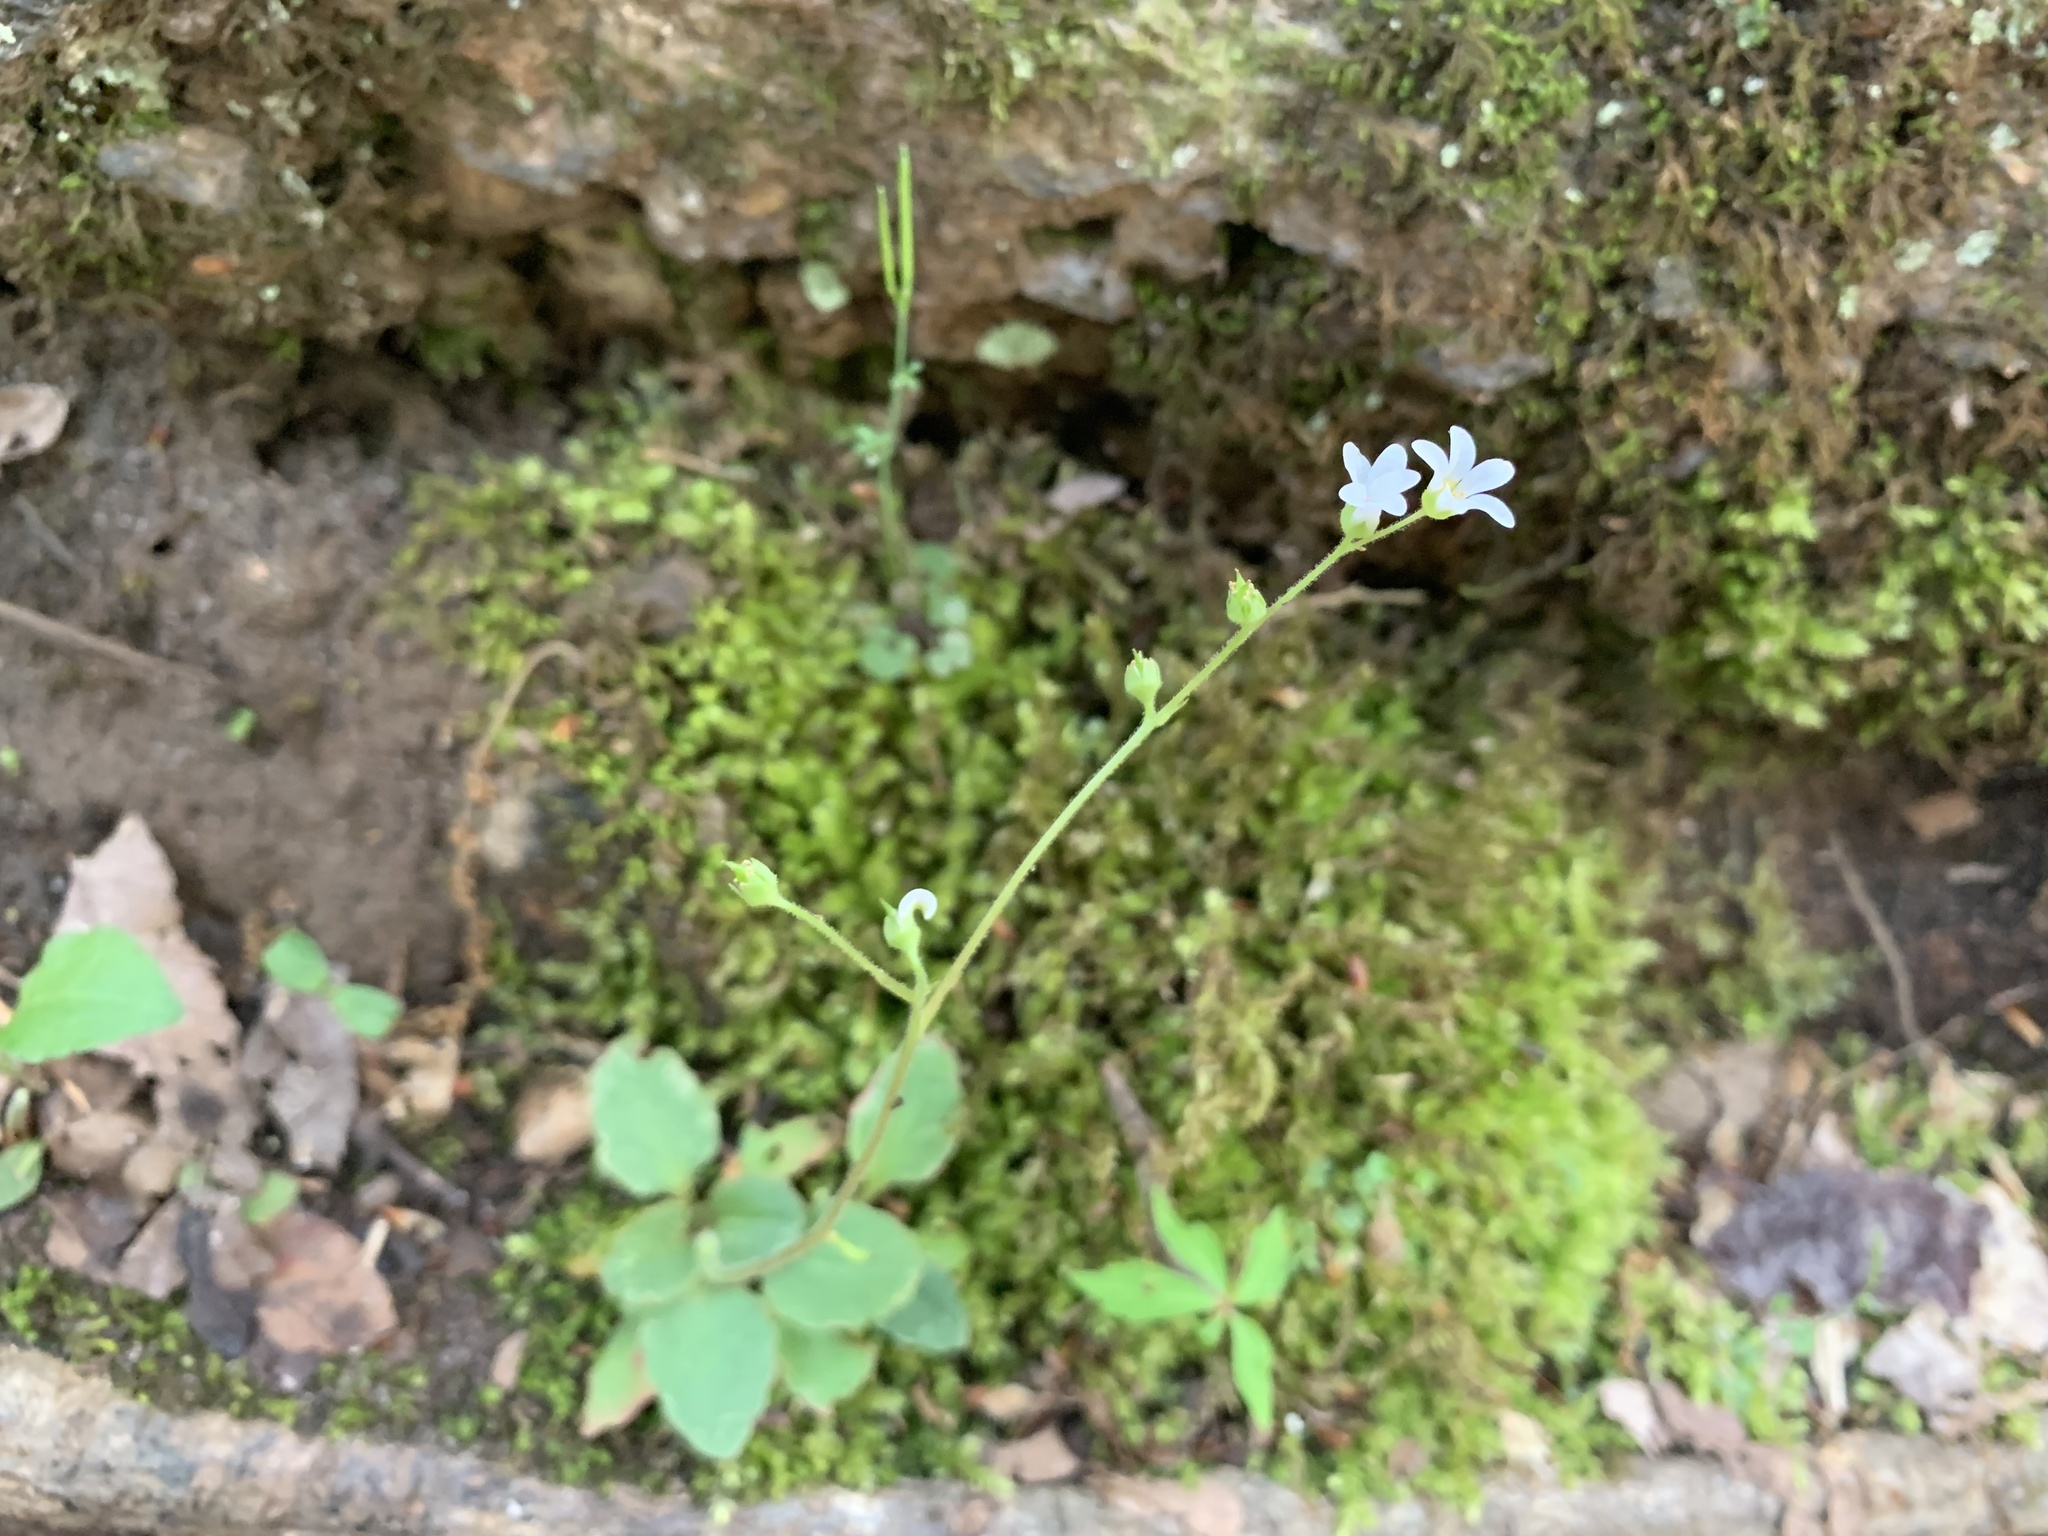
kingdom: Plantae
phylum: Tracheophyta
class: Magnoliopsida
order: Saxifragales
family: Saxifragaceae
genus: Micranthes
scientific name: Micranthes virginiensis
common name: Early saxifrage
